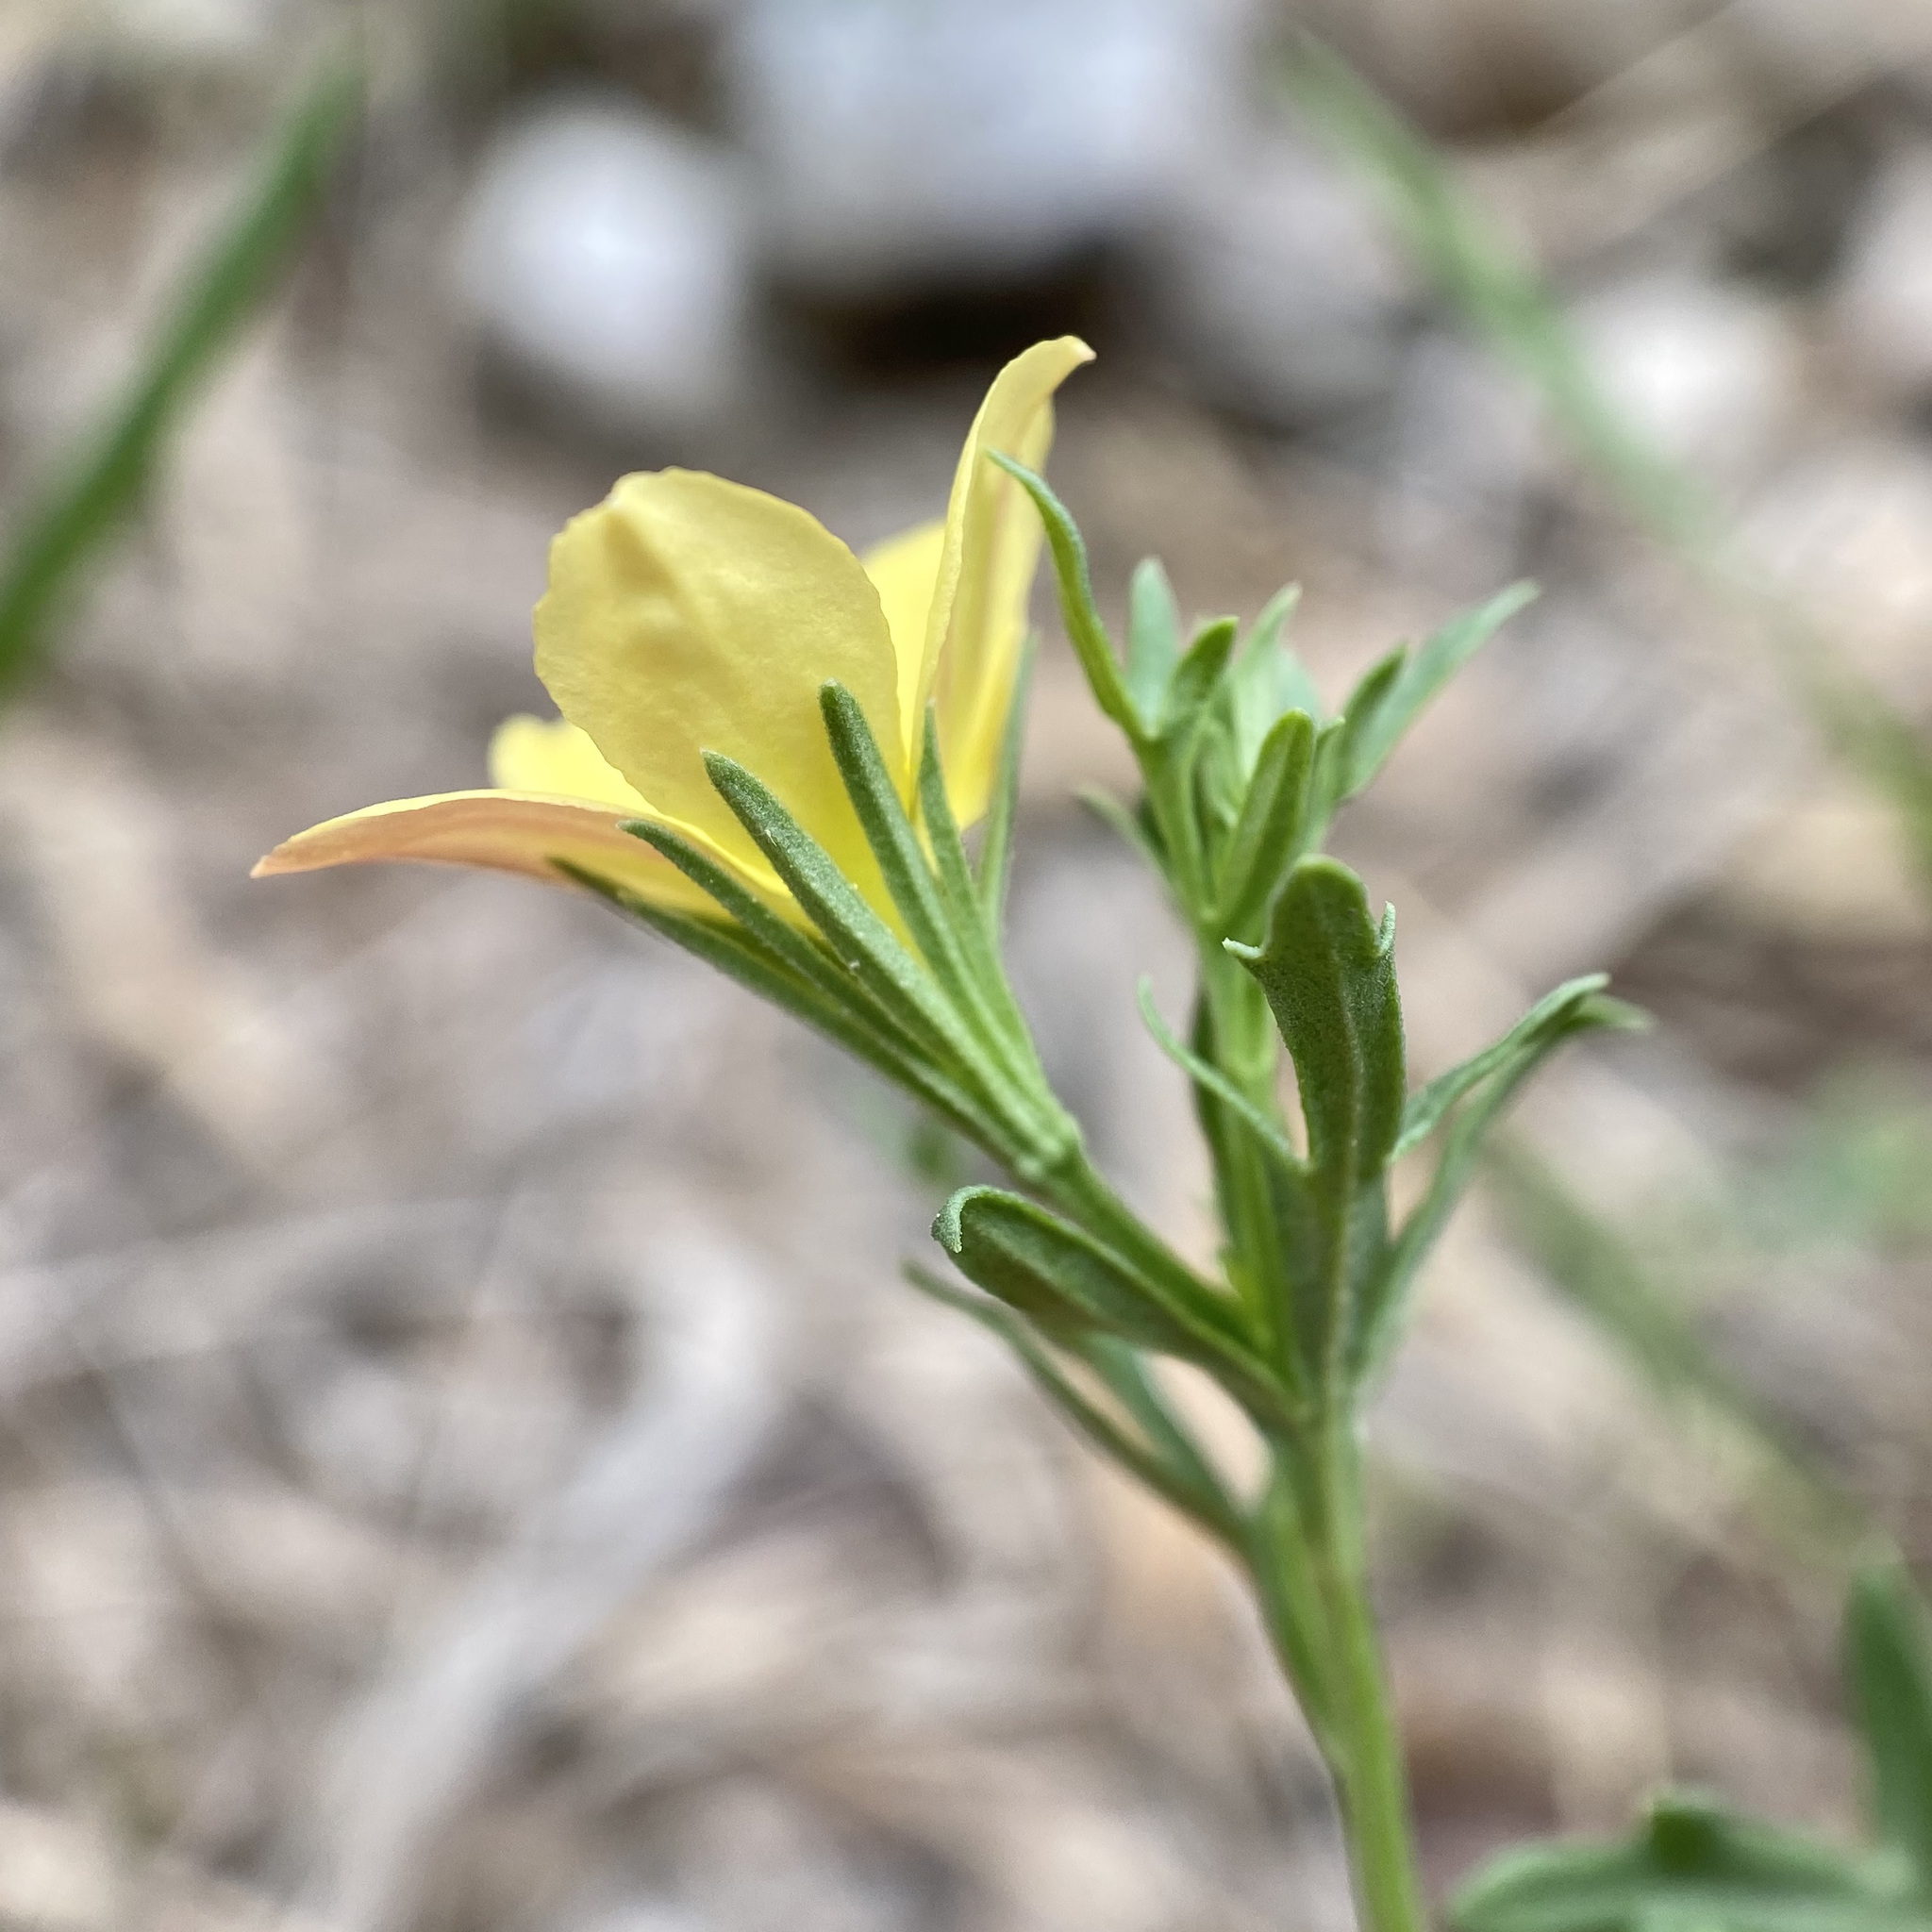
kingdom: Plantae
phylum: Tracheophyta
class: Magnoliopsida
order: Lamiales
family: Oleaceae
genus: Menodora
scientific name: Menodora heterophylla
